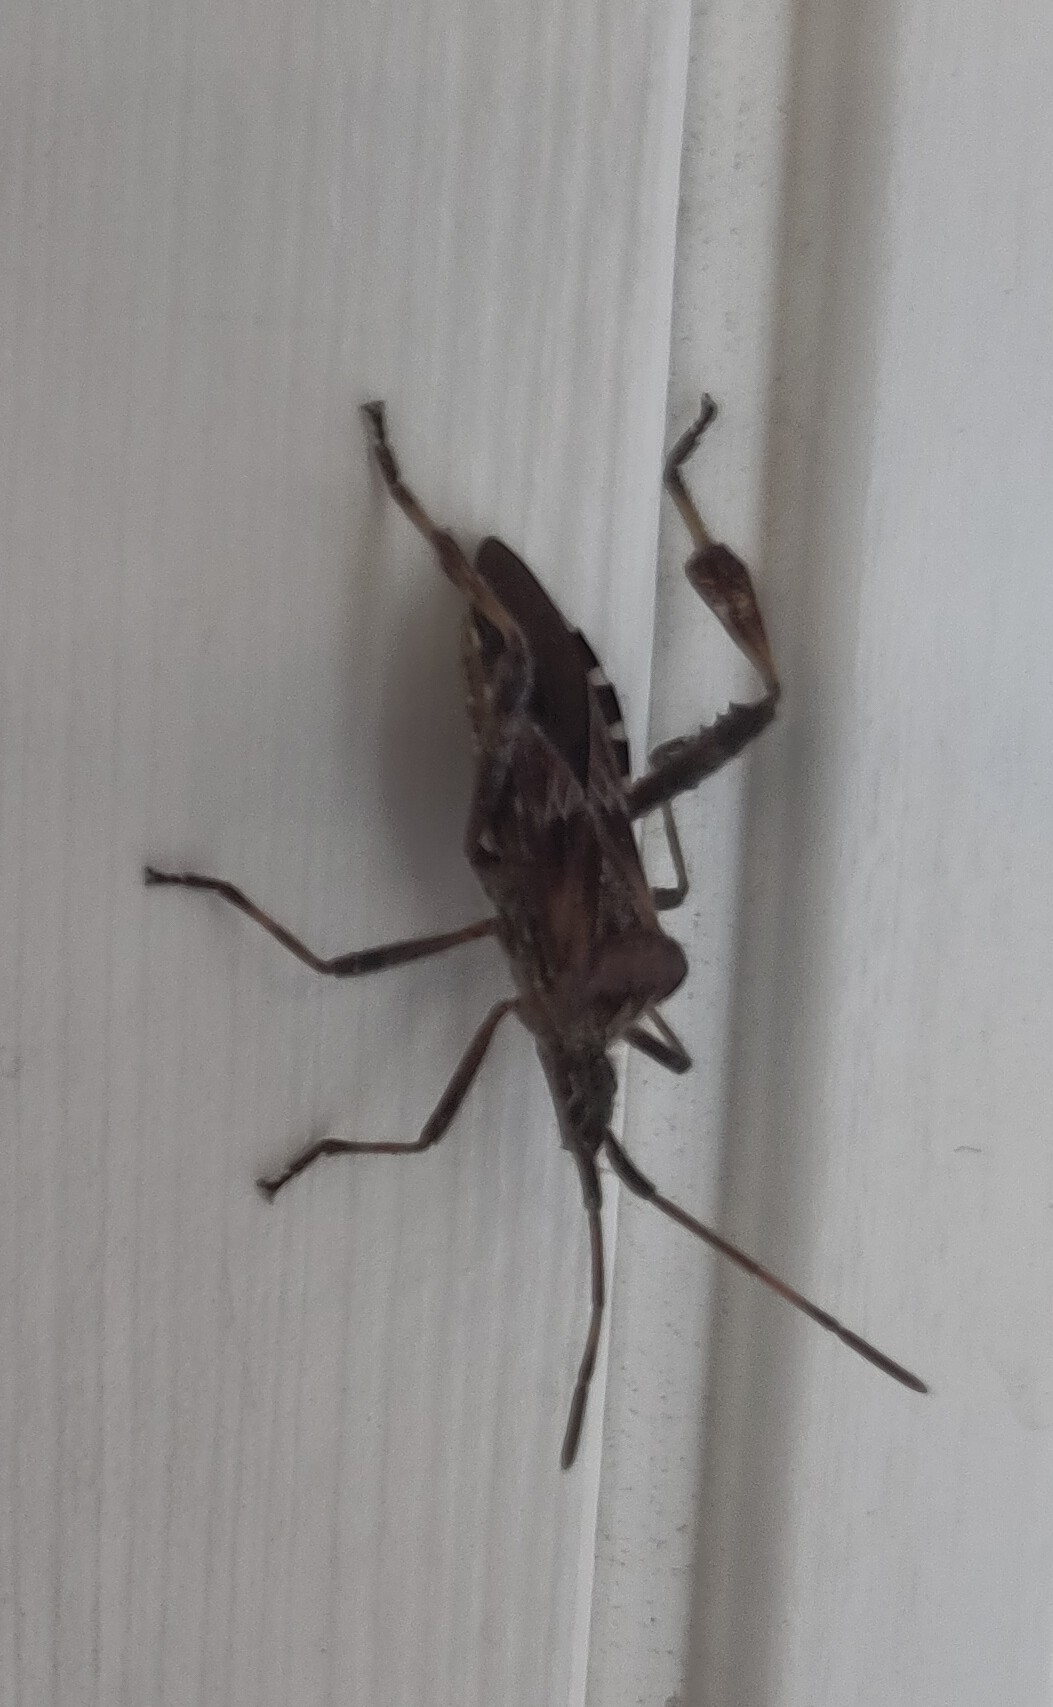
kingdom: Animalia
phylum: Arthropoda
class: Insecta
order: Hemiptera
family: Coreidae
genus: Leptoglossus
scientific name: Leptoglossus occidentalis
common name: Western conifer-seed bug
